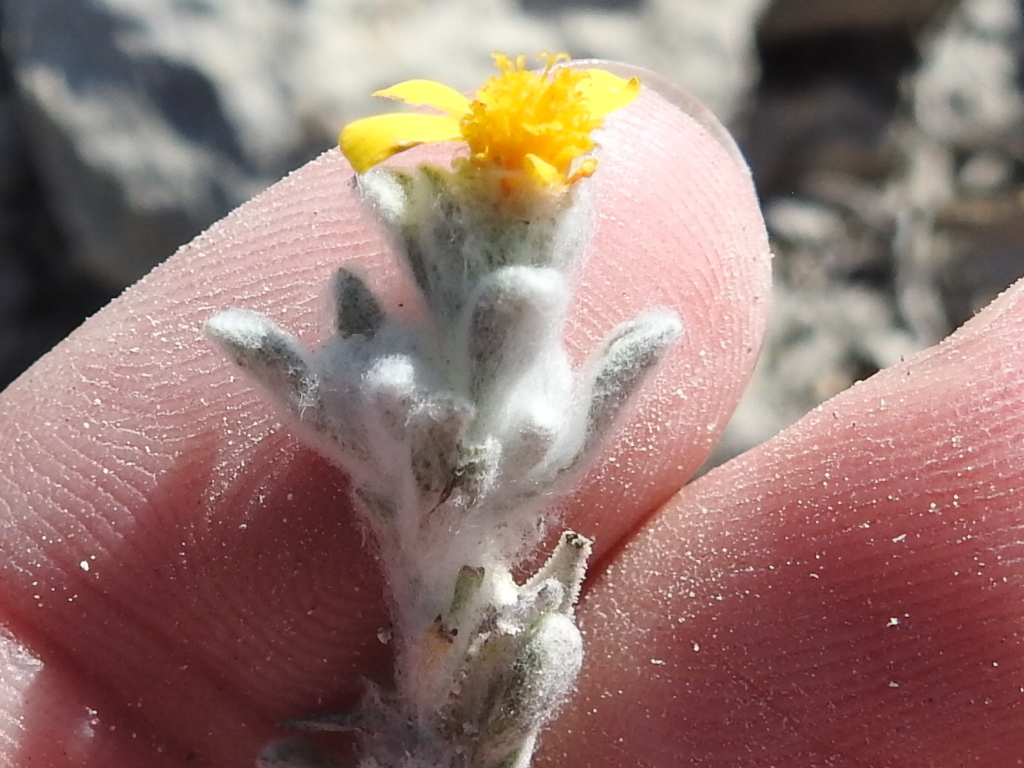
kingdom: Plantae
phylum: Tracheophyta
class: Magnoliopsida
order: Asterales
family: Asteraceae
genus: Thymophylla
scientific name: Thymophylla micropoides
